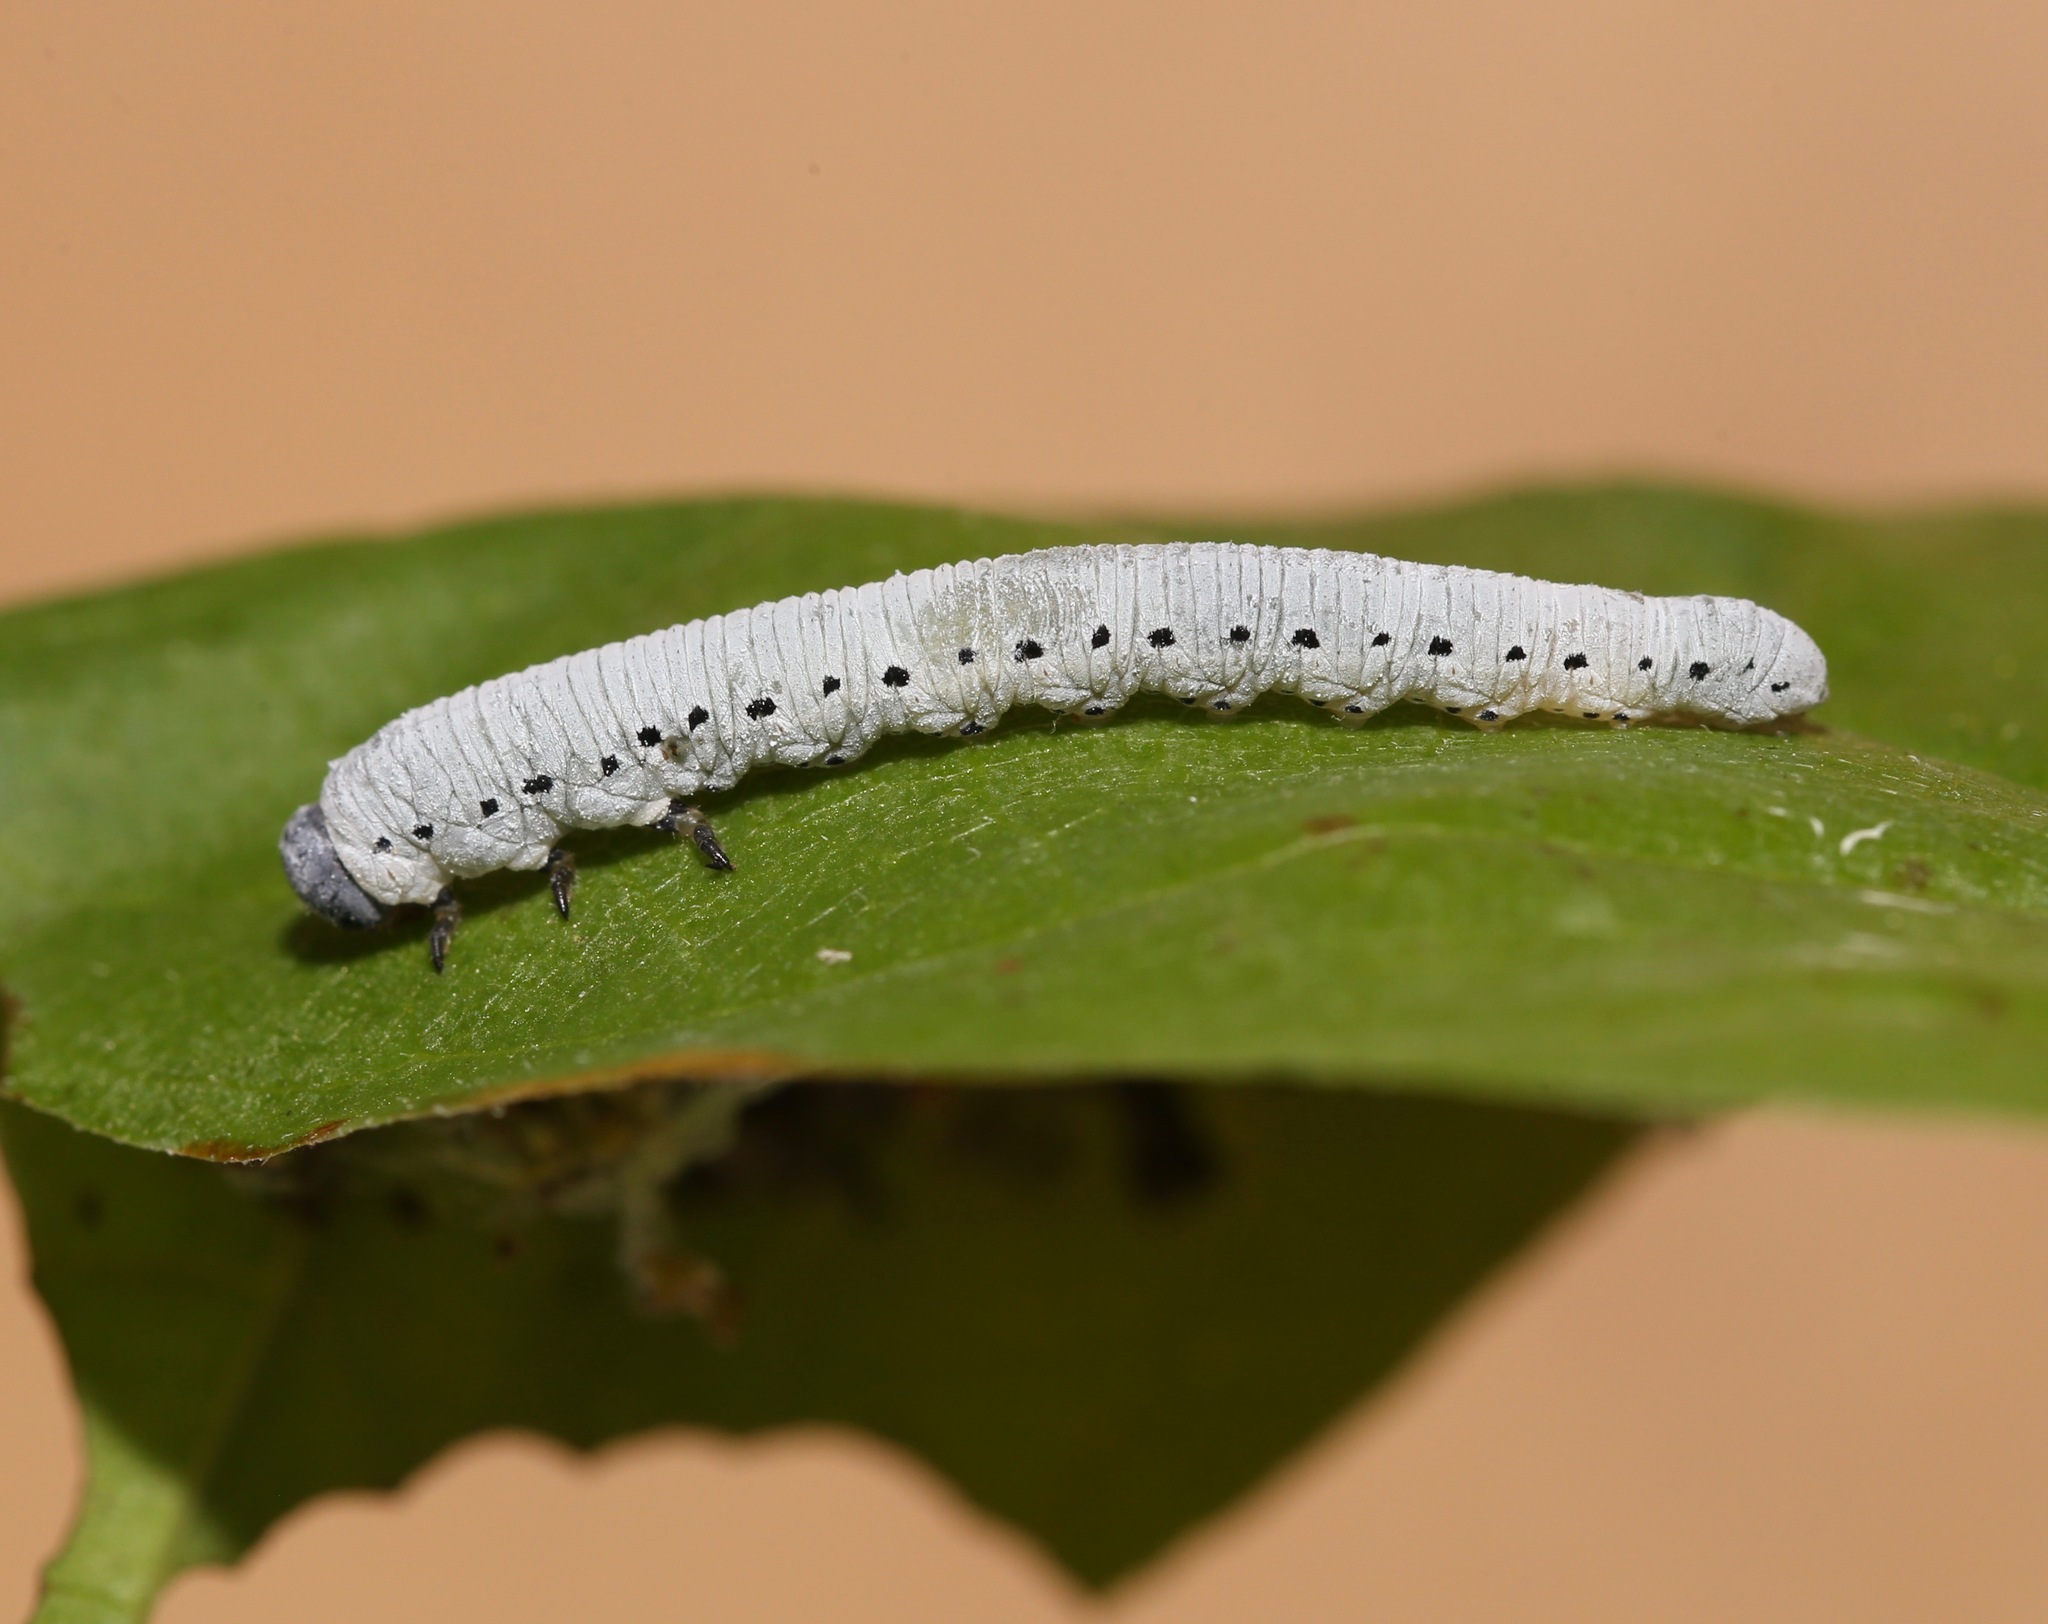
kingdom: Animalia
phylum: Arthropoda
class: Insecta
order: Hymenoptera
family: Tenthredinidae
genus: Pseudosiobla
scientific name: Pseudosiobla
